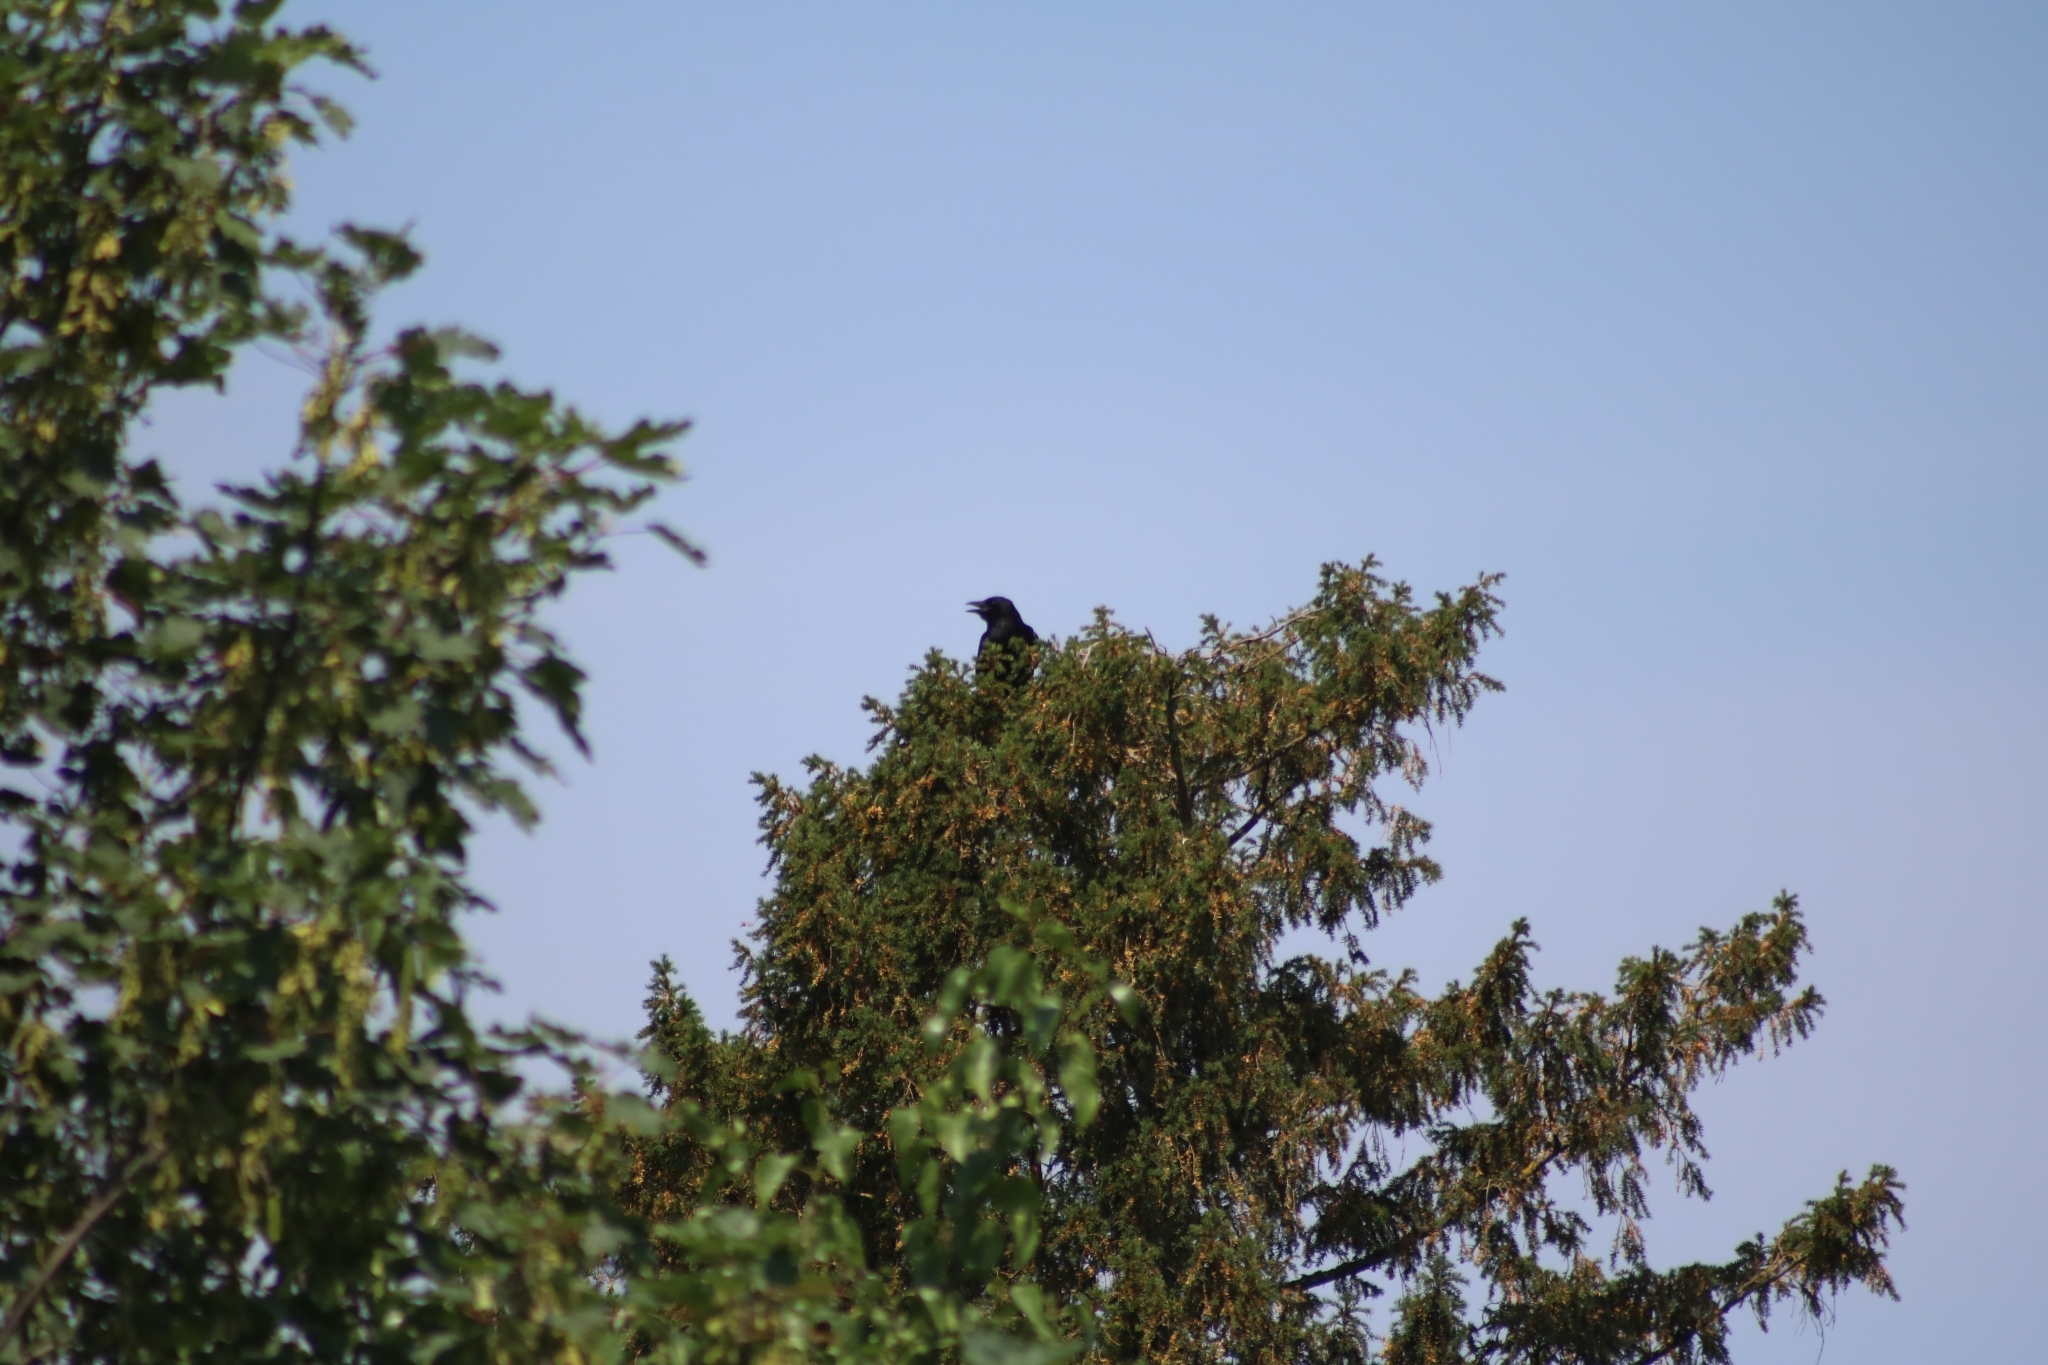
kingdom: Animalia
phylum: Chordata
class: Aves
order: Passeriformes
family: Corvidae
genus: Corvus
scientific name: Corvus corone
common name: Carrion crow
